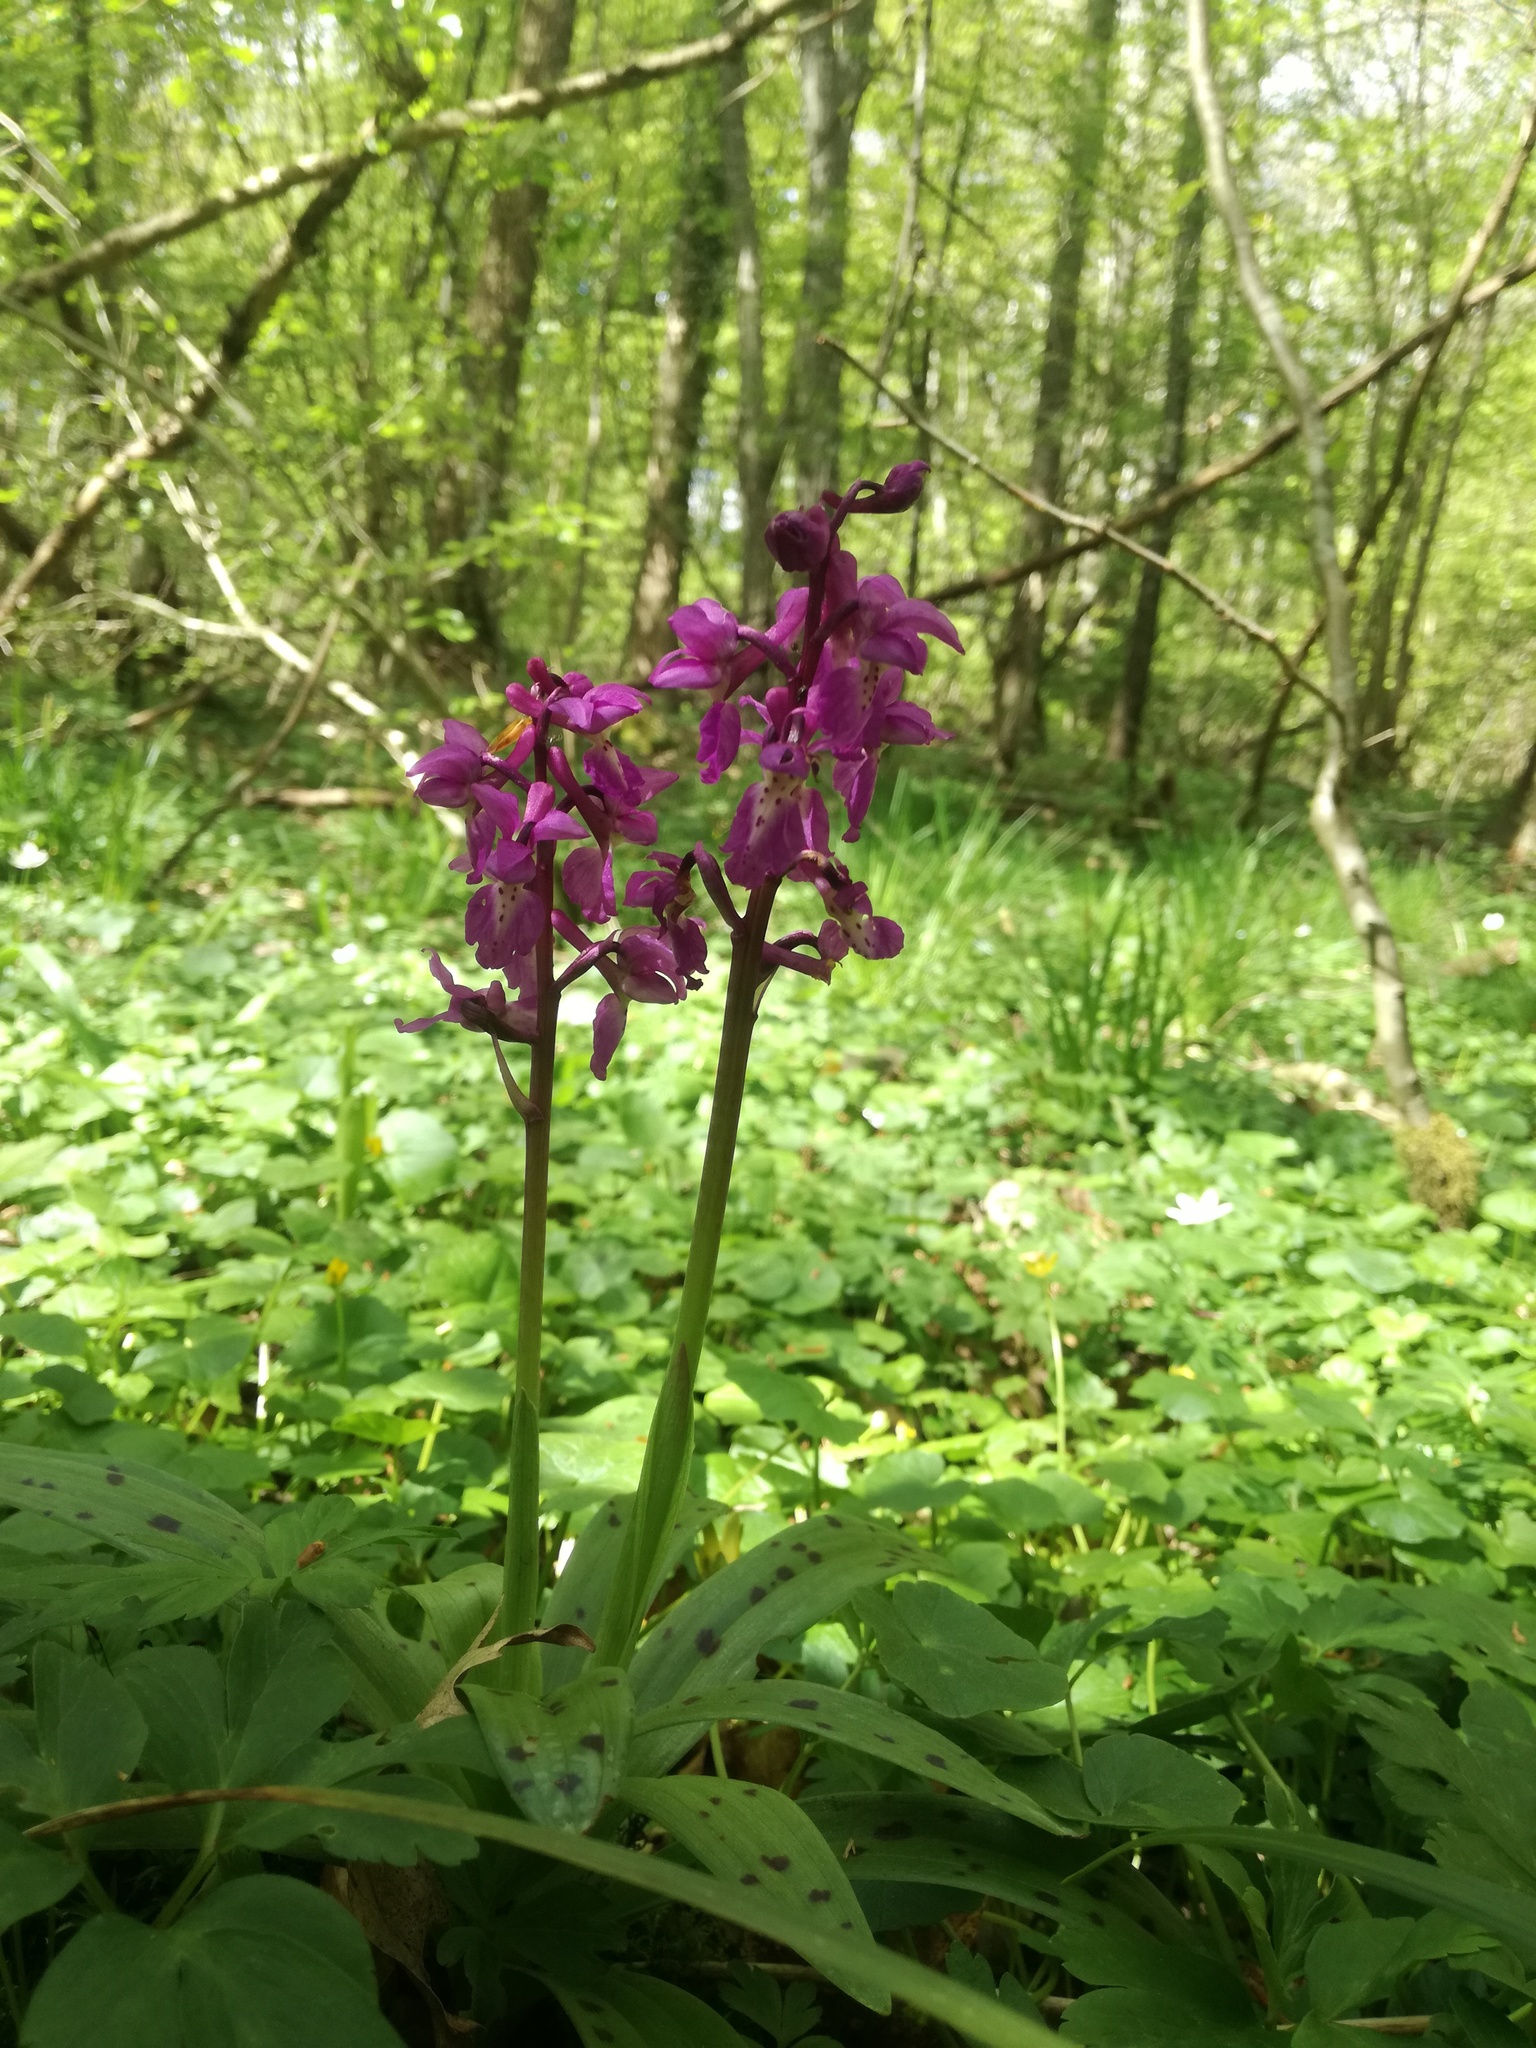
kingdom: Plantae
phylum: Tracheophyta
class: Liliopsida
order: Asparagales
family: Orchidaceae
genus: Orchis
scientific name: Orchis mascula
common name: Early-purple orchid
